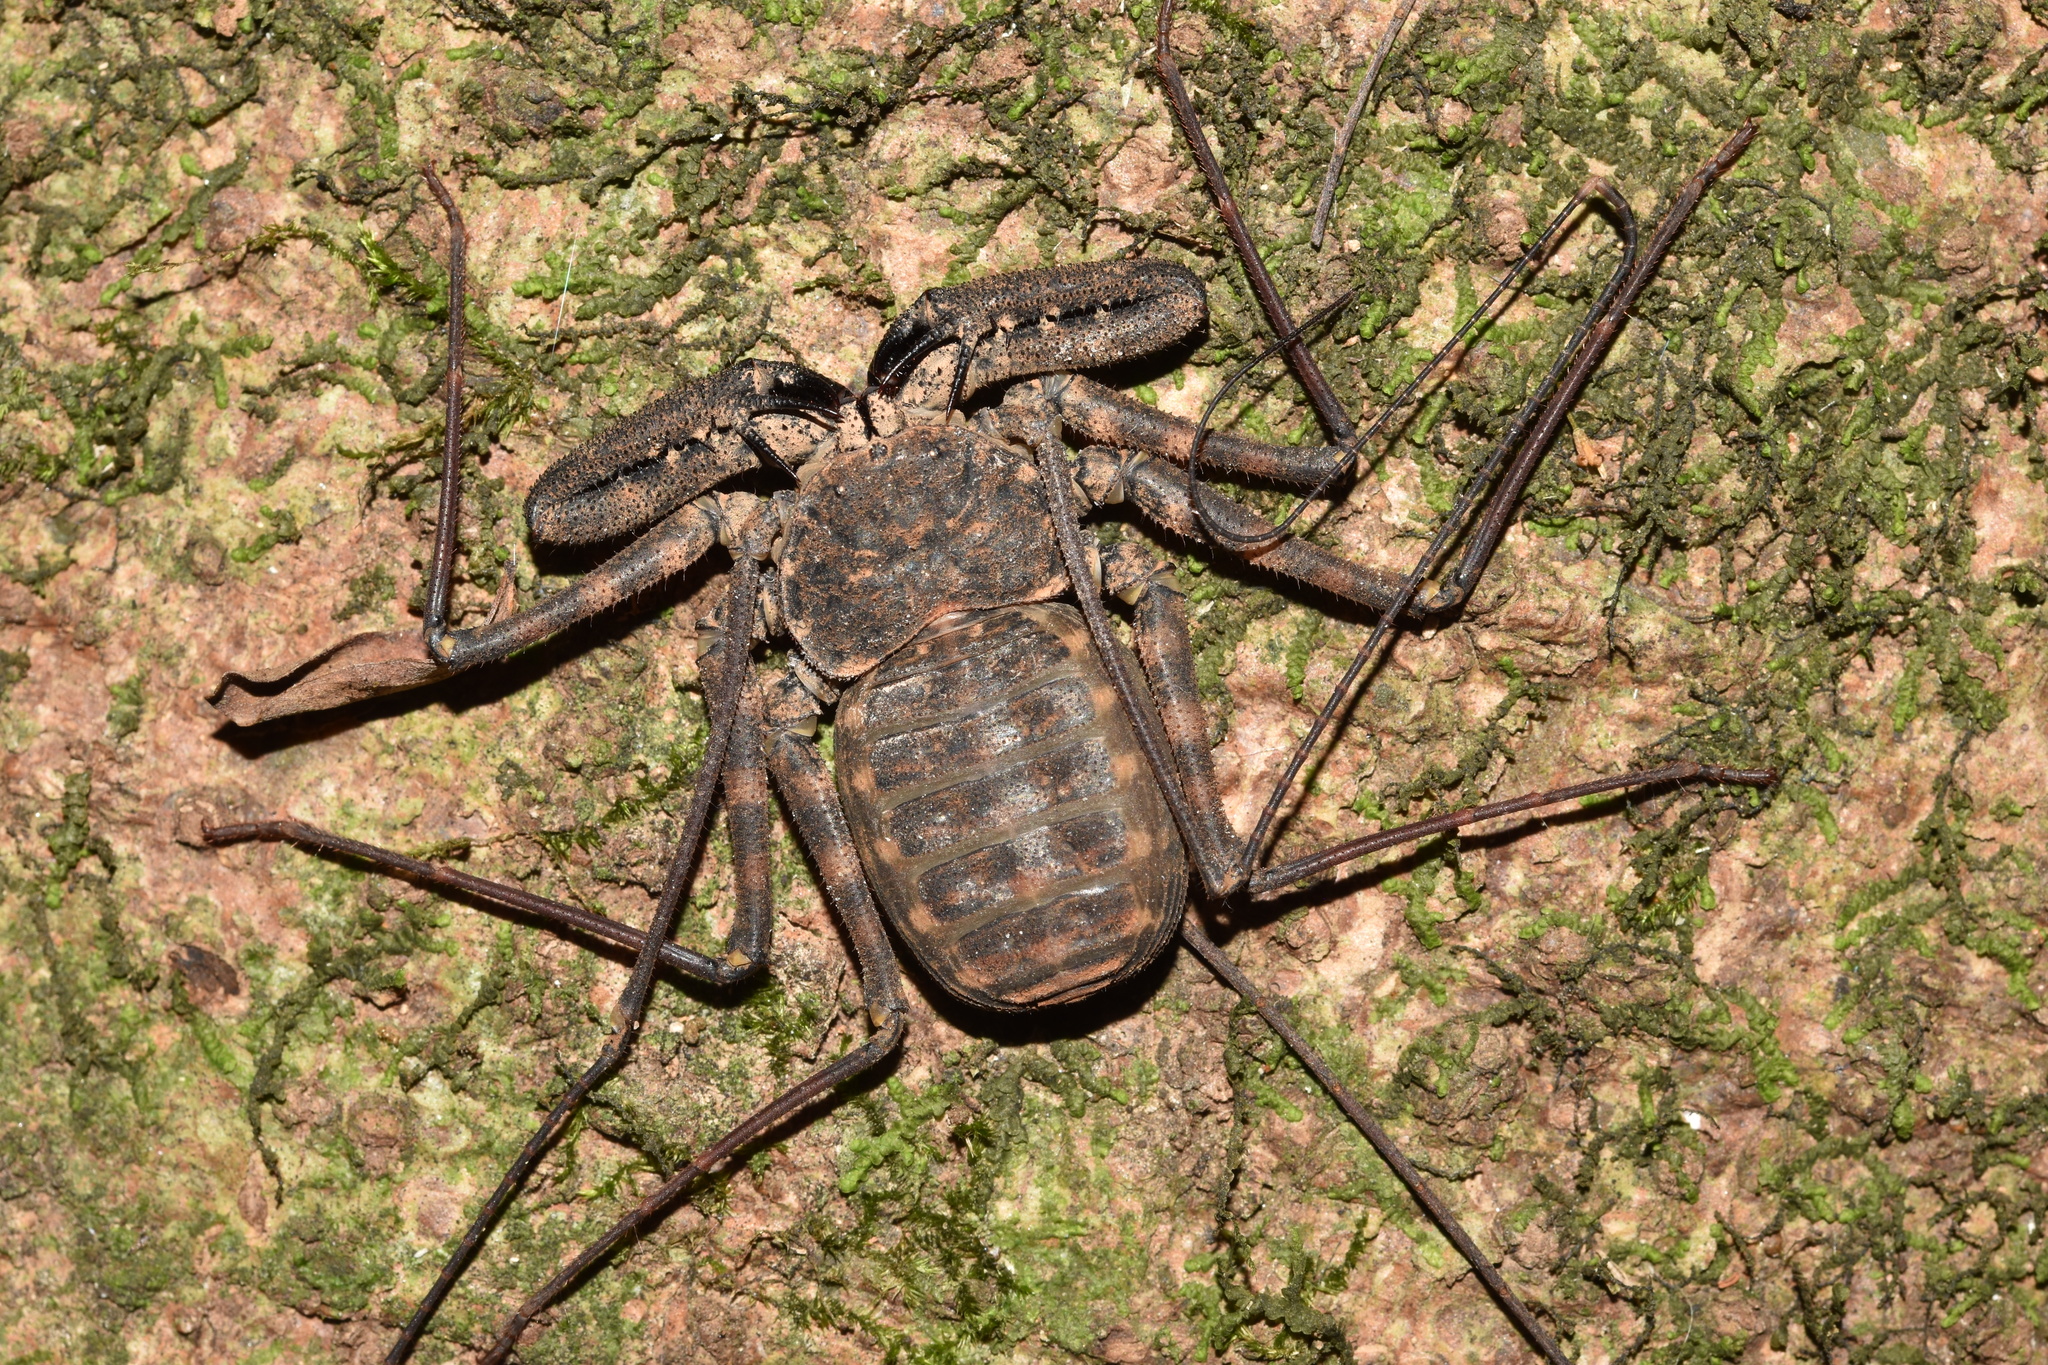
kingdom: Animalia
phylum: Arthropoda
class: Arachnida
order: Amblypygi
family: Phrynichidae
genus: Damon
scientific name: Damon annulatipes
